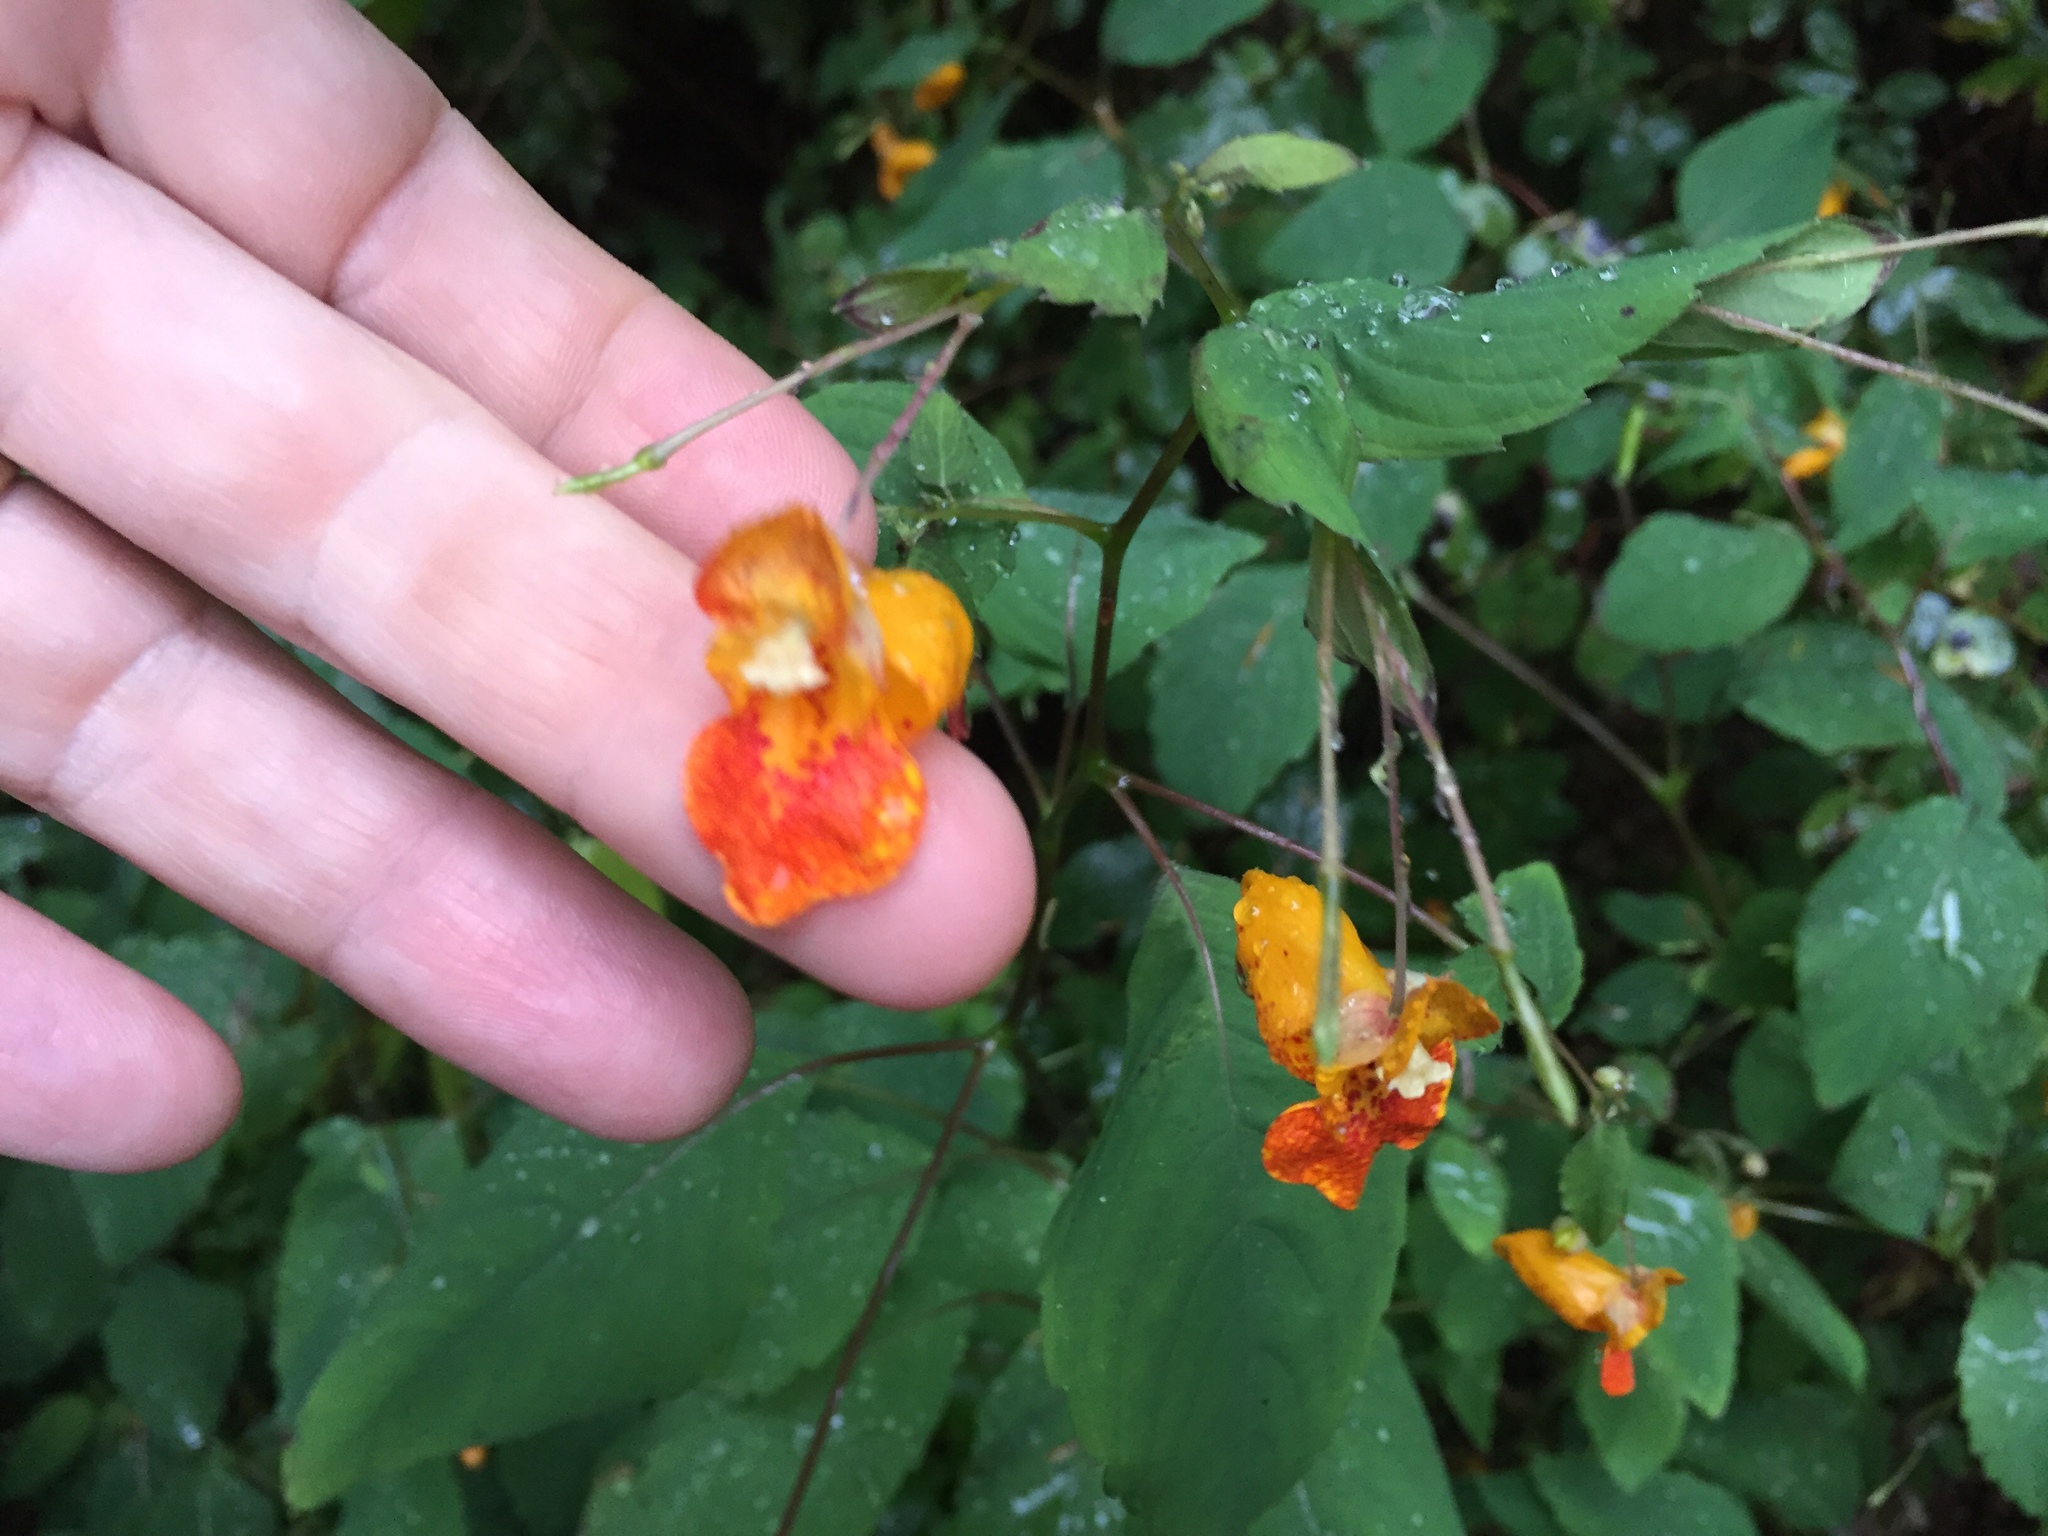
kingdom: Plantae
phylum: Tracheophyta
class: Magnoliopsida
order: Ericales
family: Balsaminaceae
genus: Impatiens
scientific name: Impatiens capensis
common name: Orange balsam
